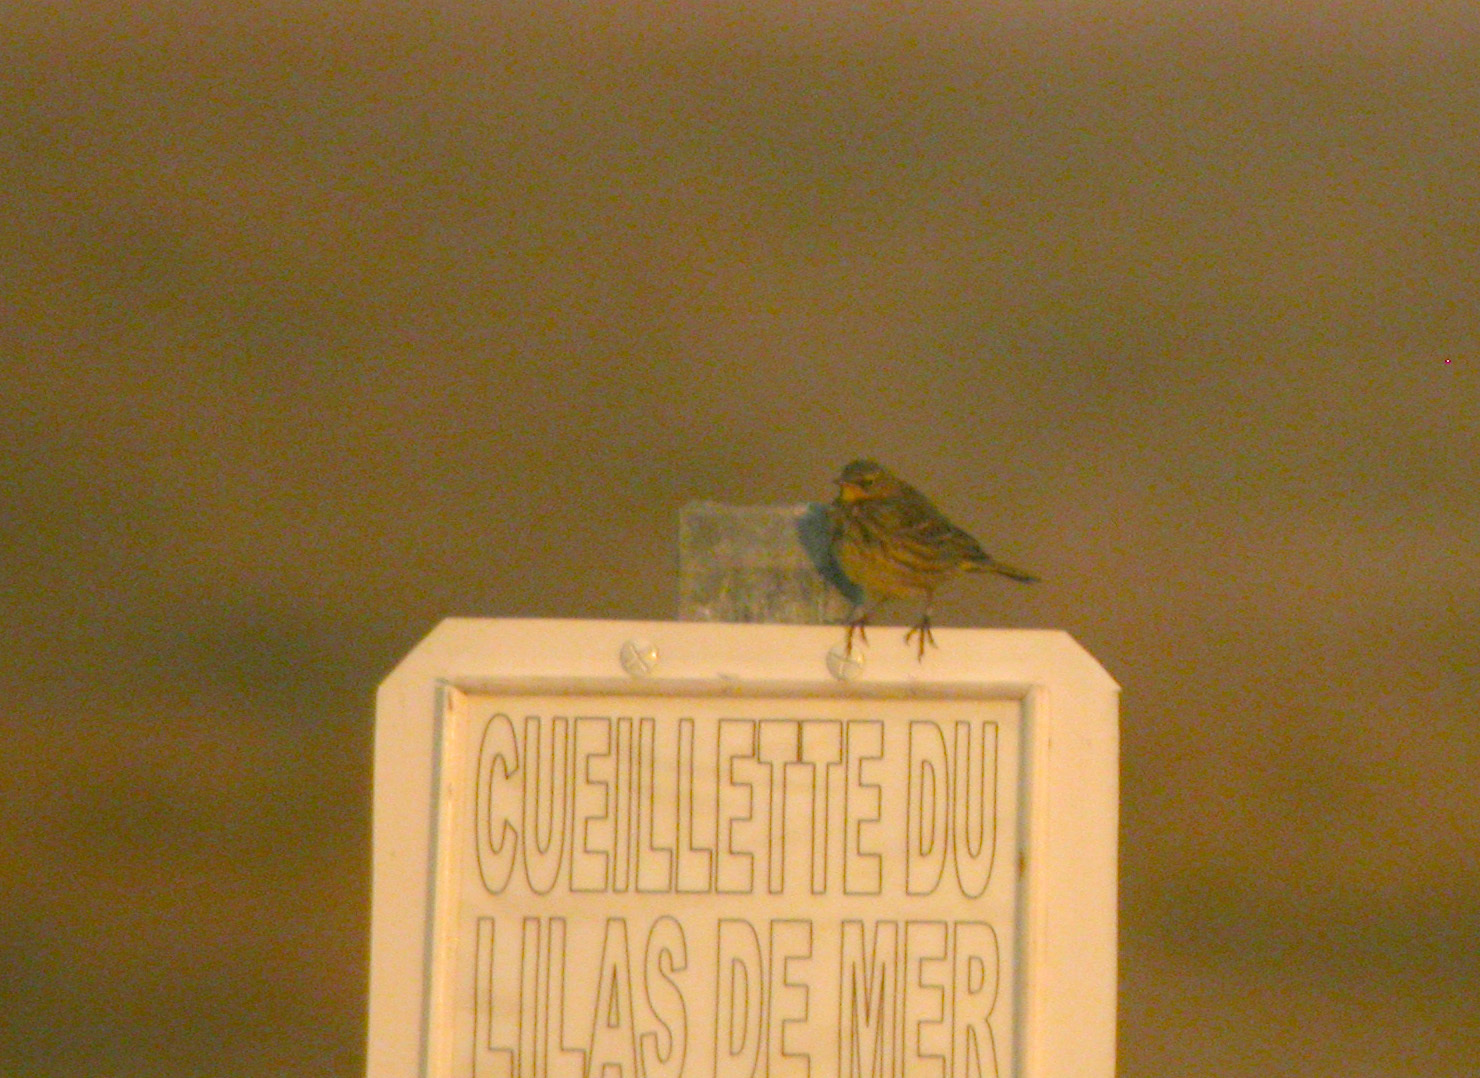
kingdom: Animalia
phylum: Chordata
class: Aves
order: Passeriformes
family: Motacillidae
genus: Anthus
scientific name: Anthus petrosus
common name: Eurasian rock pipit
